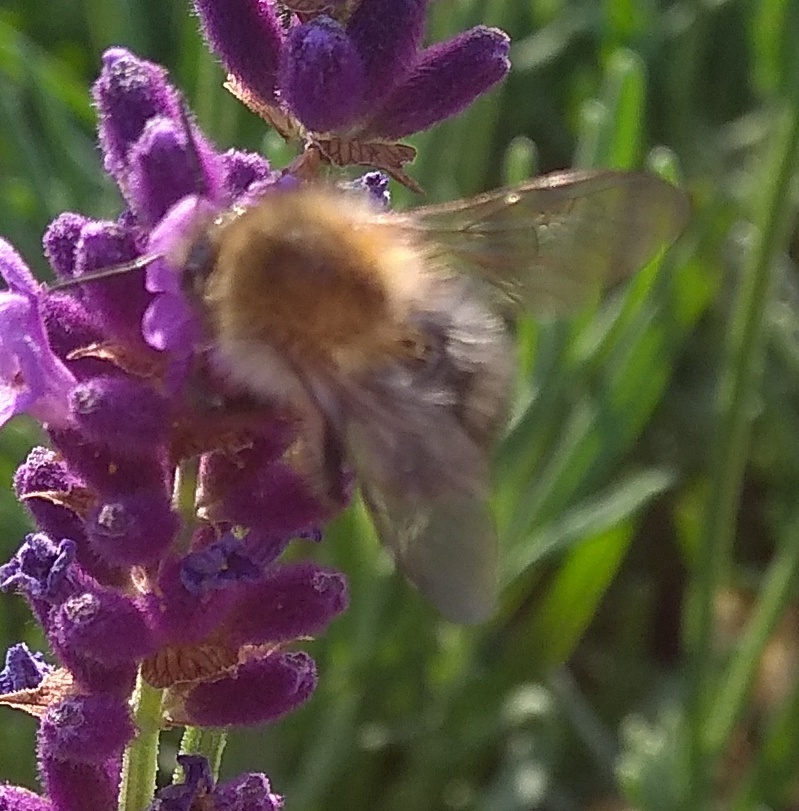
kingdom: Animalia
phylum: Arthropoda
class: Insecta
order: Hymenoptera
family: Apidae
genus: Bombus
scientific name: Bombus pascuorum
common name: Common carder bee
